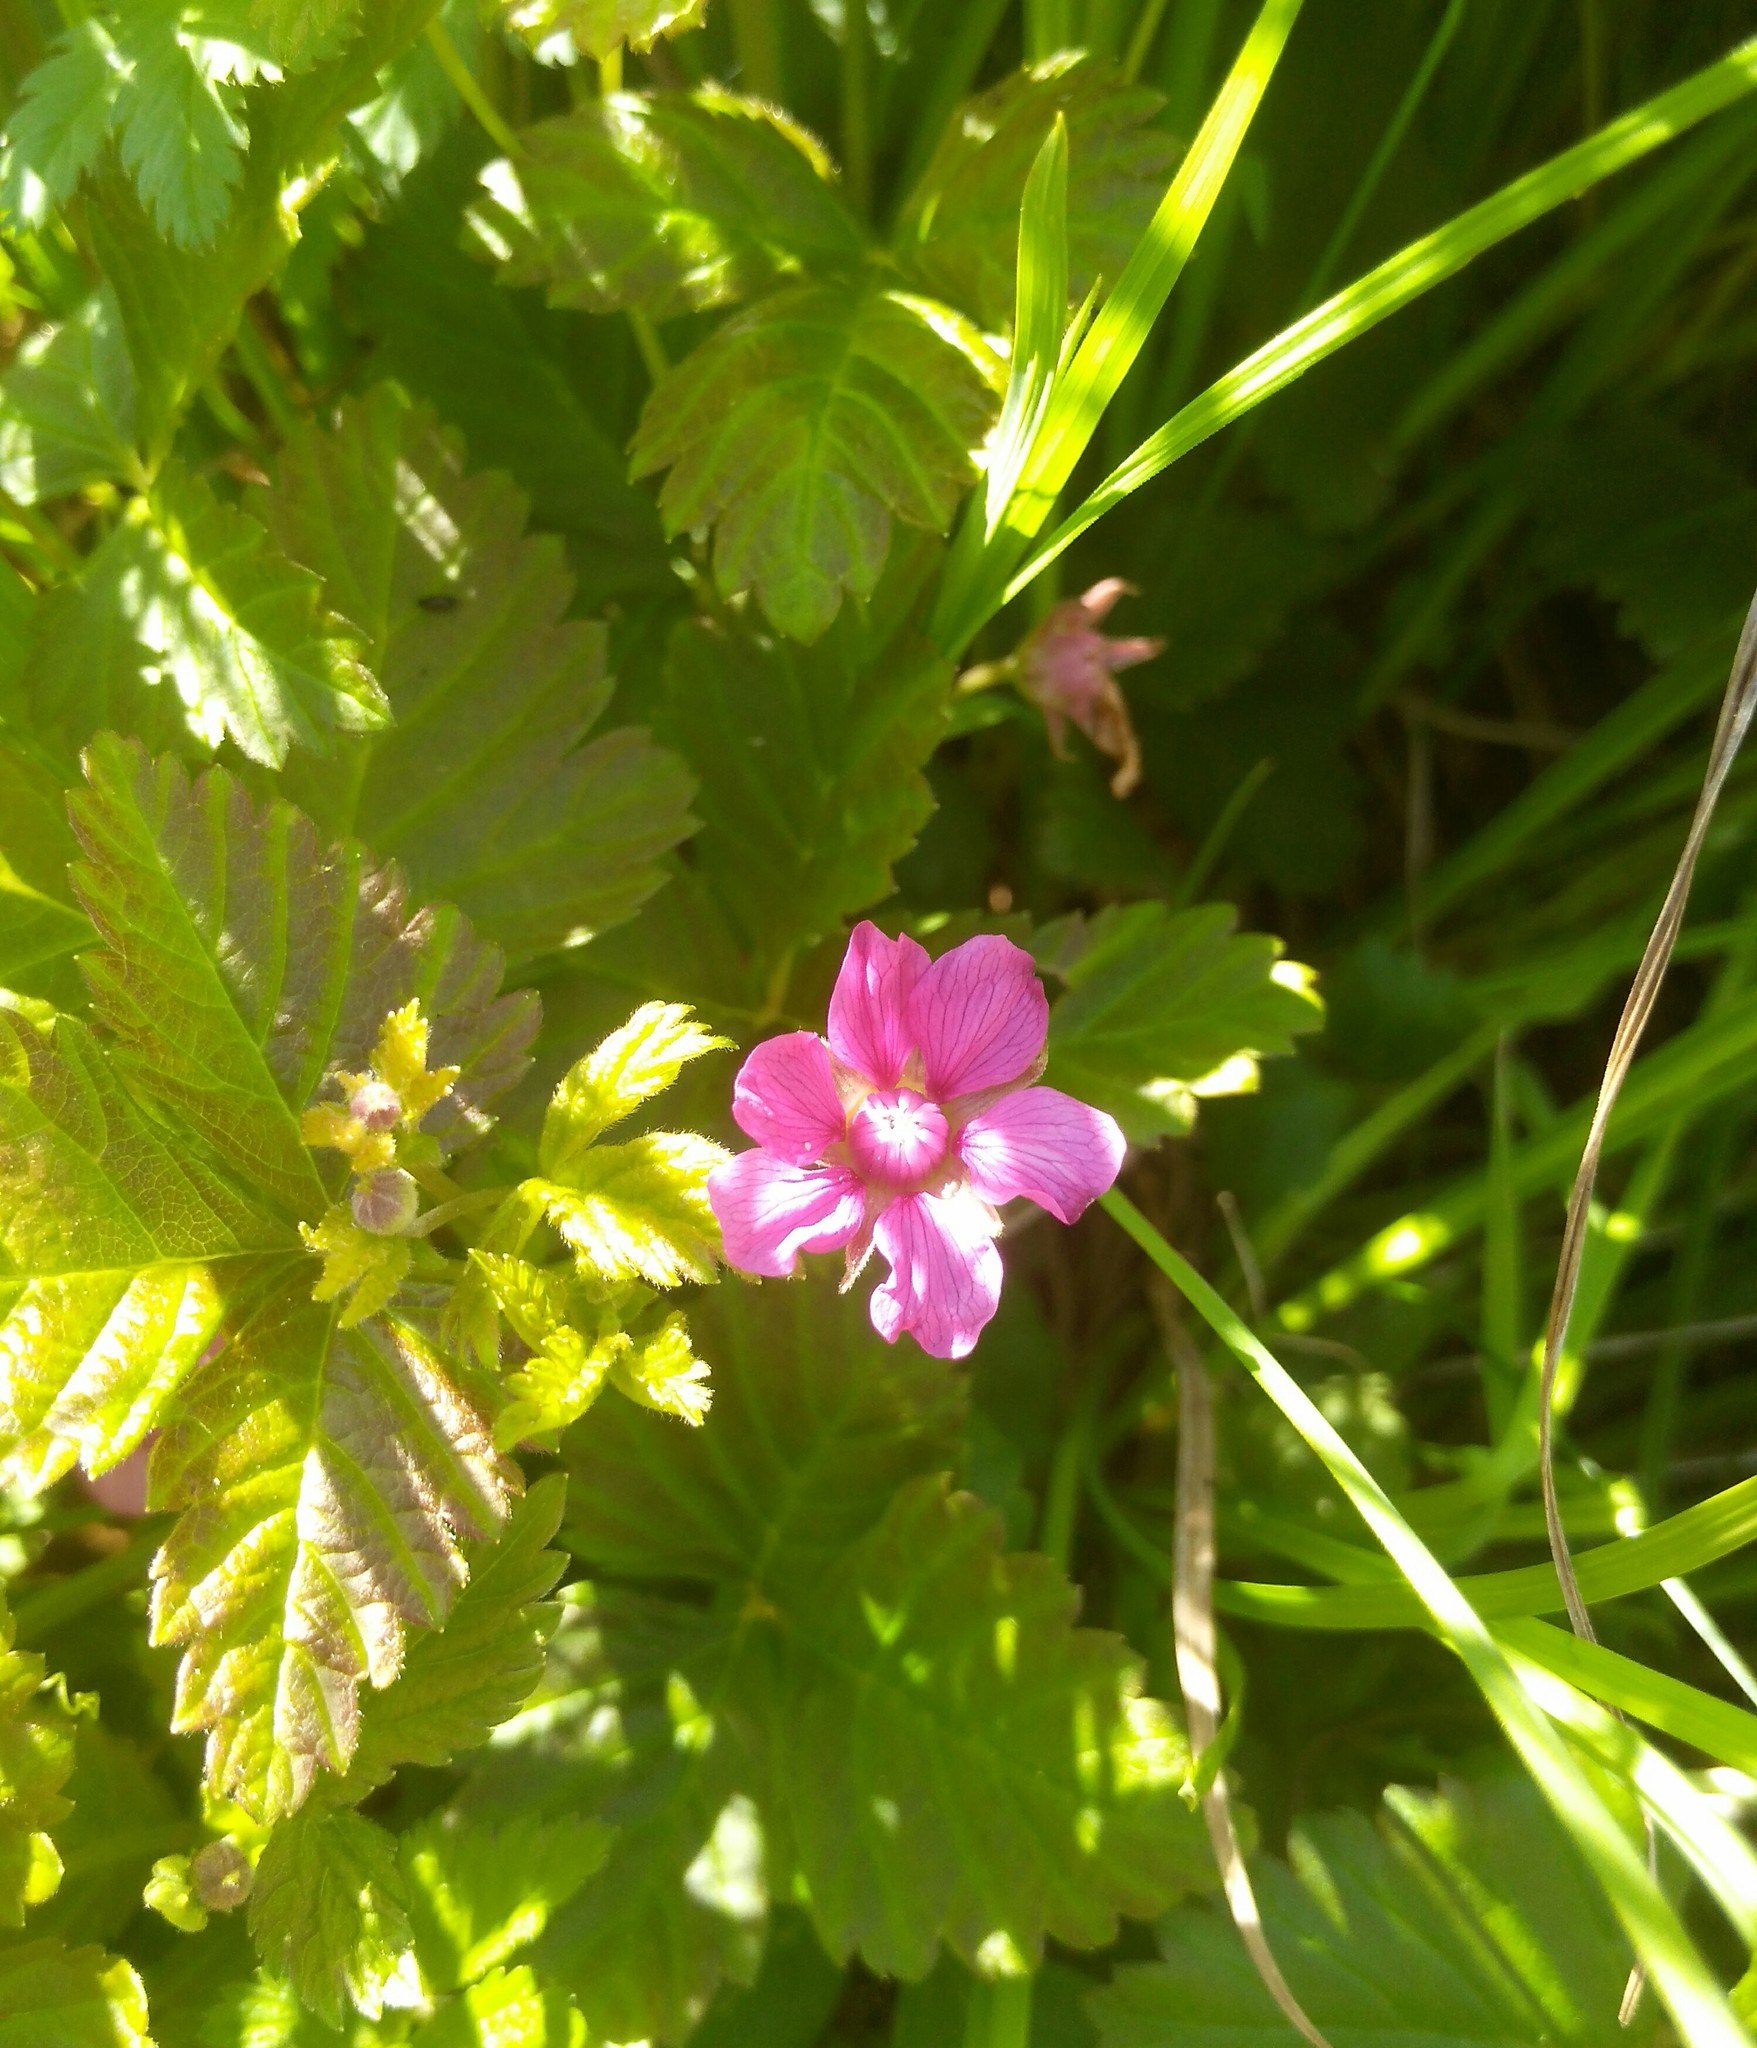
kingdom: Plantae
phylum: Tracheophyta
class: Magnoliopsida
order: Rosales
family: Rosaceae
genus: Rubus
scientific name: Rubus arcticus
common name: Arctic bramble
